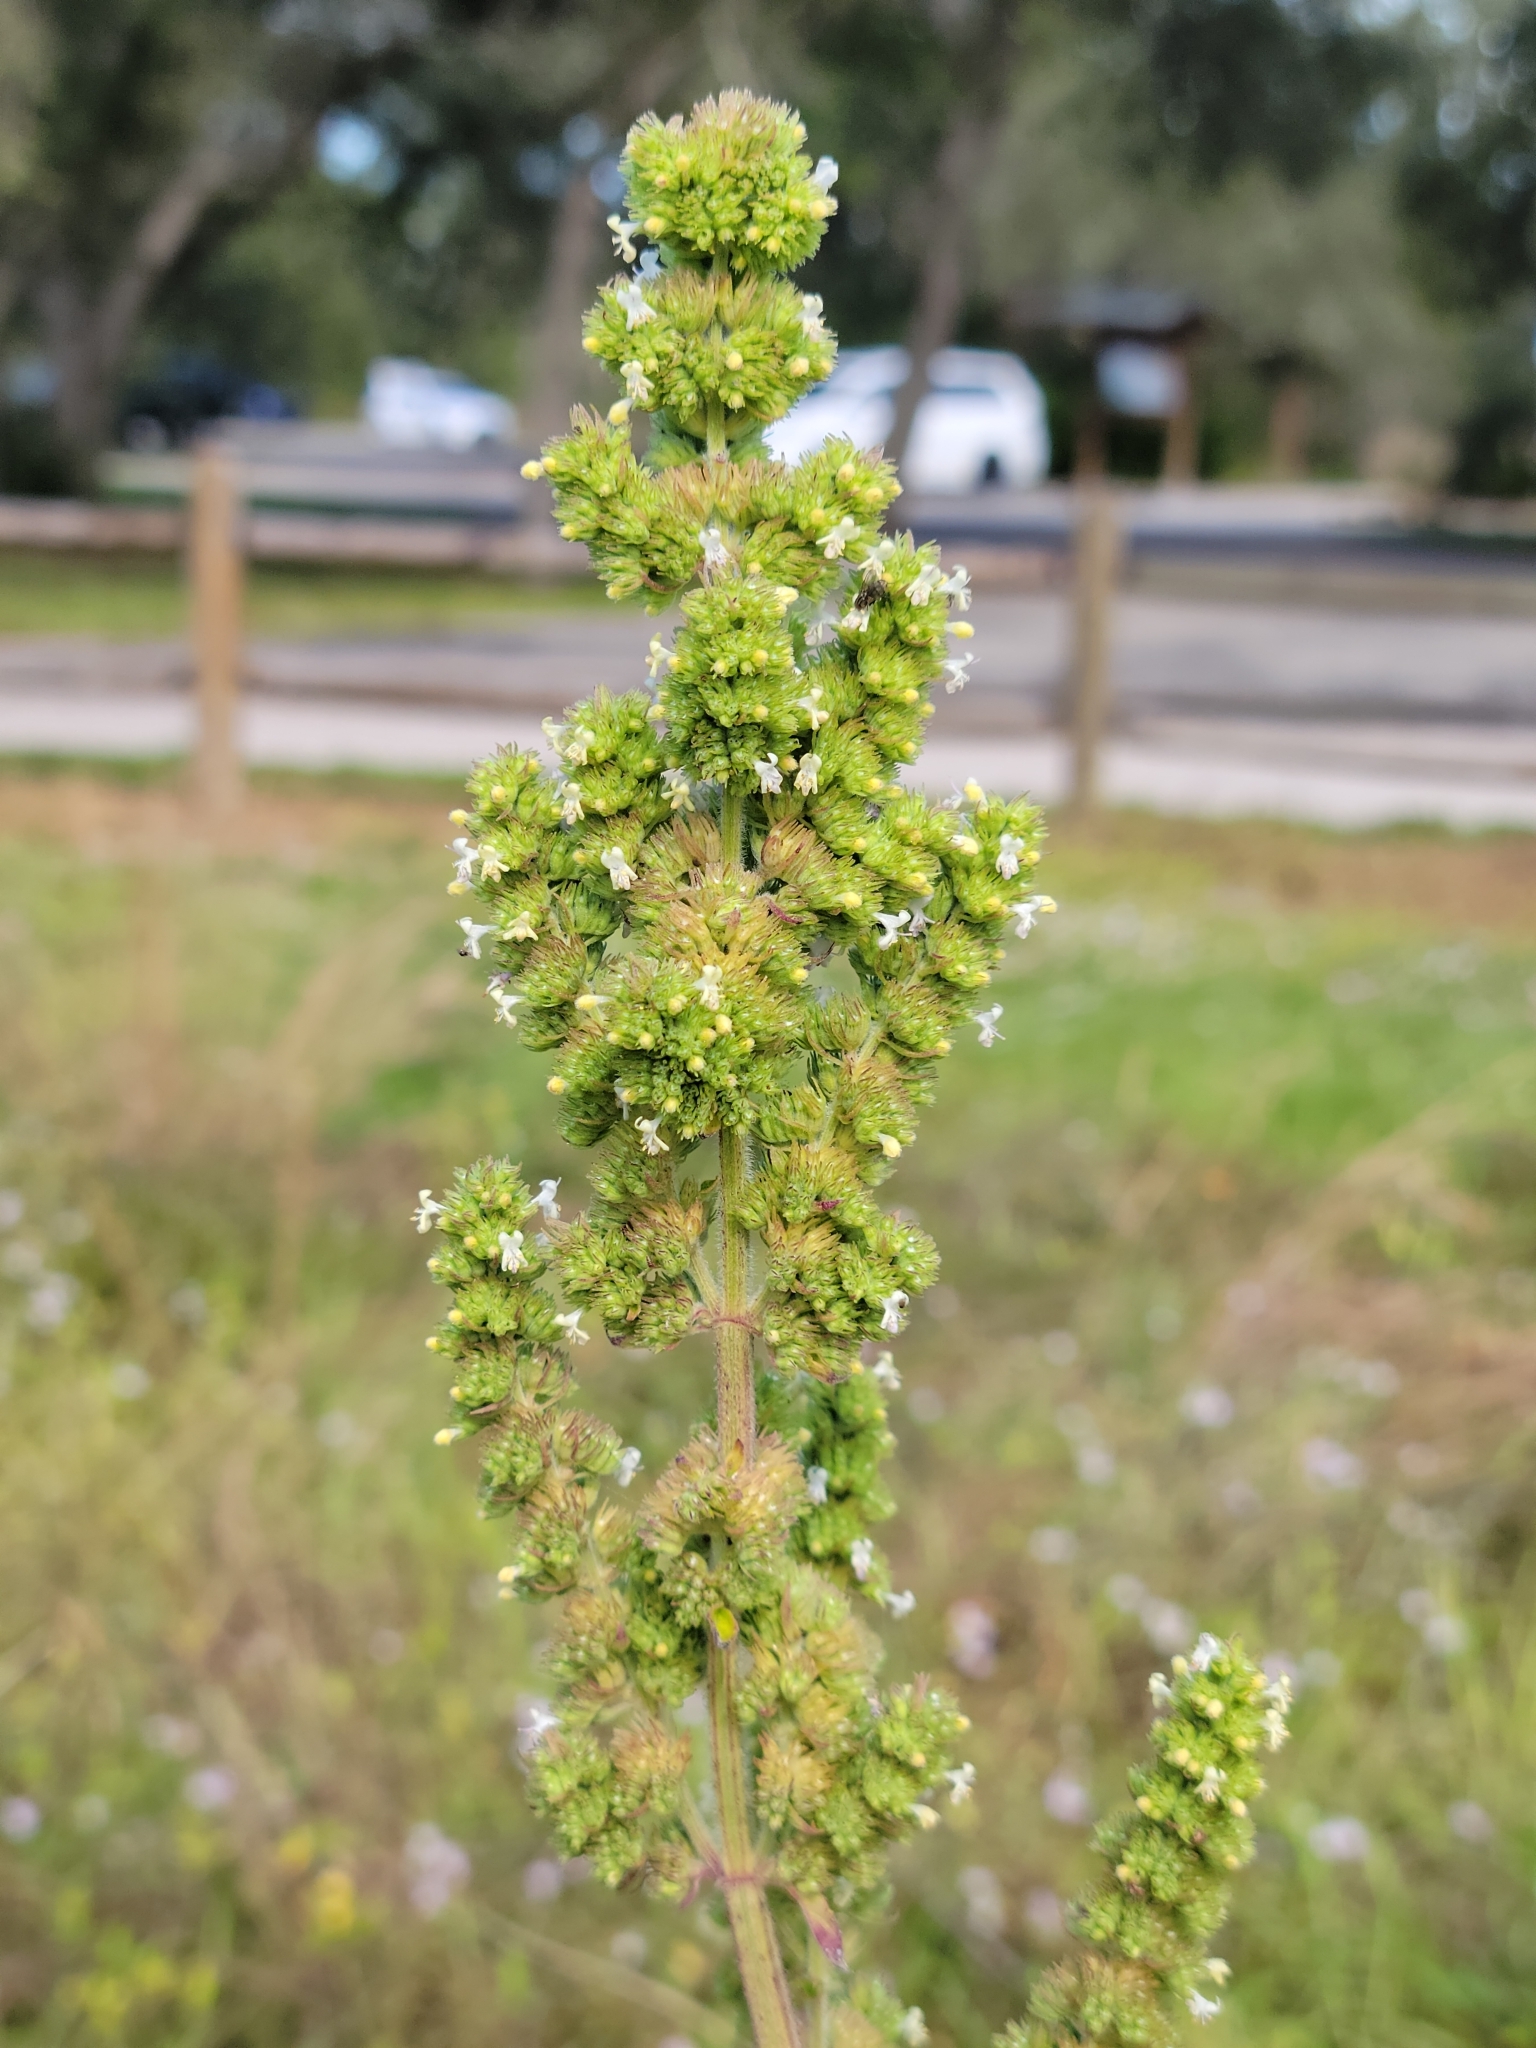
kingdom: Plantae
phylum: Tracheophyta
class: Magnoliopsida
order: Lamiales
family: Lamiaceae
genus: Mesosphaerum
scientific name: Mesosphaerum pectinatum
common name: Comb hyptis
